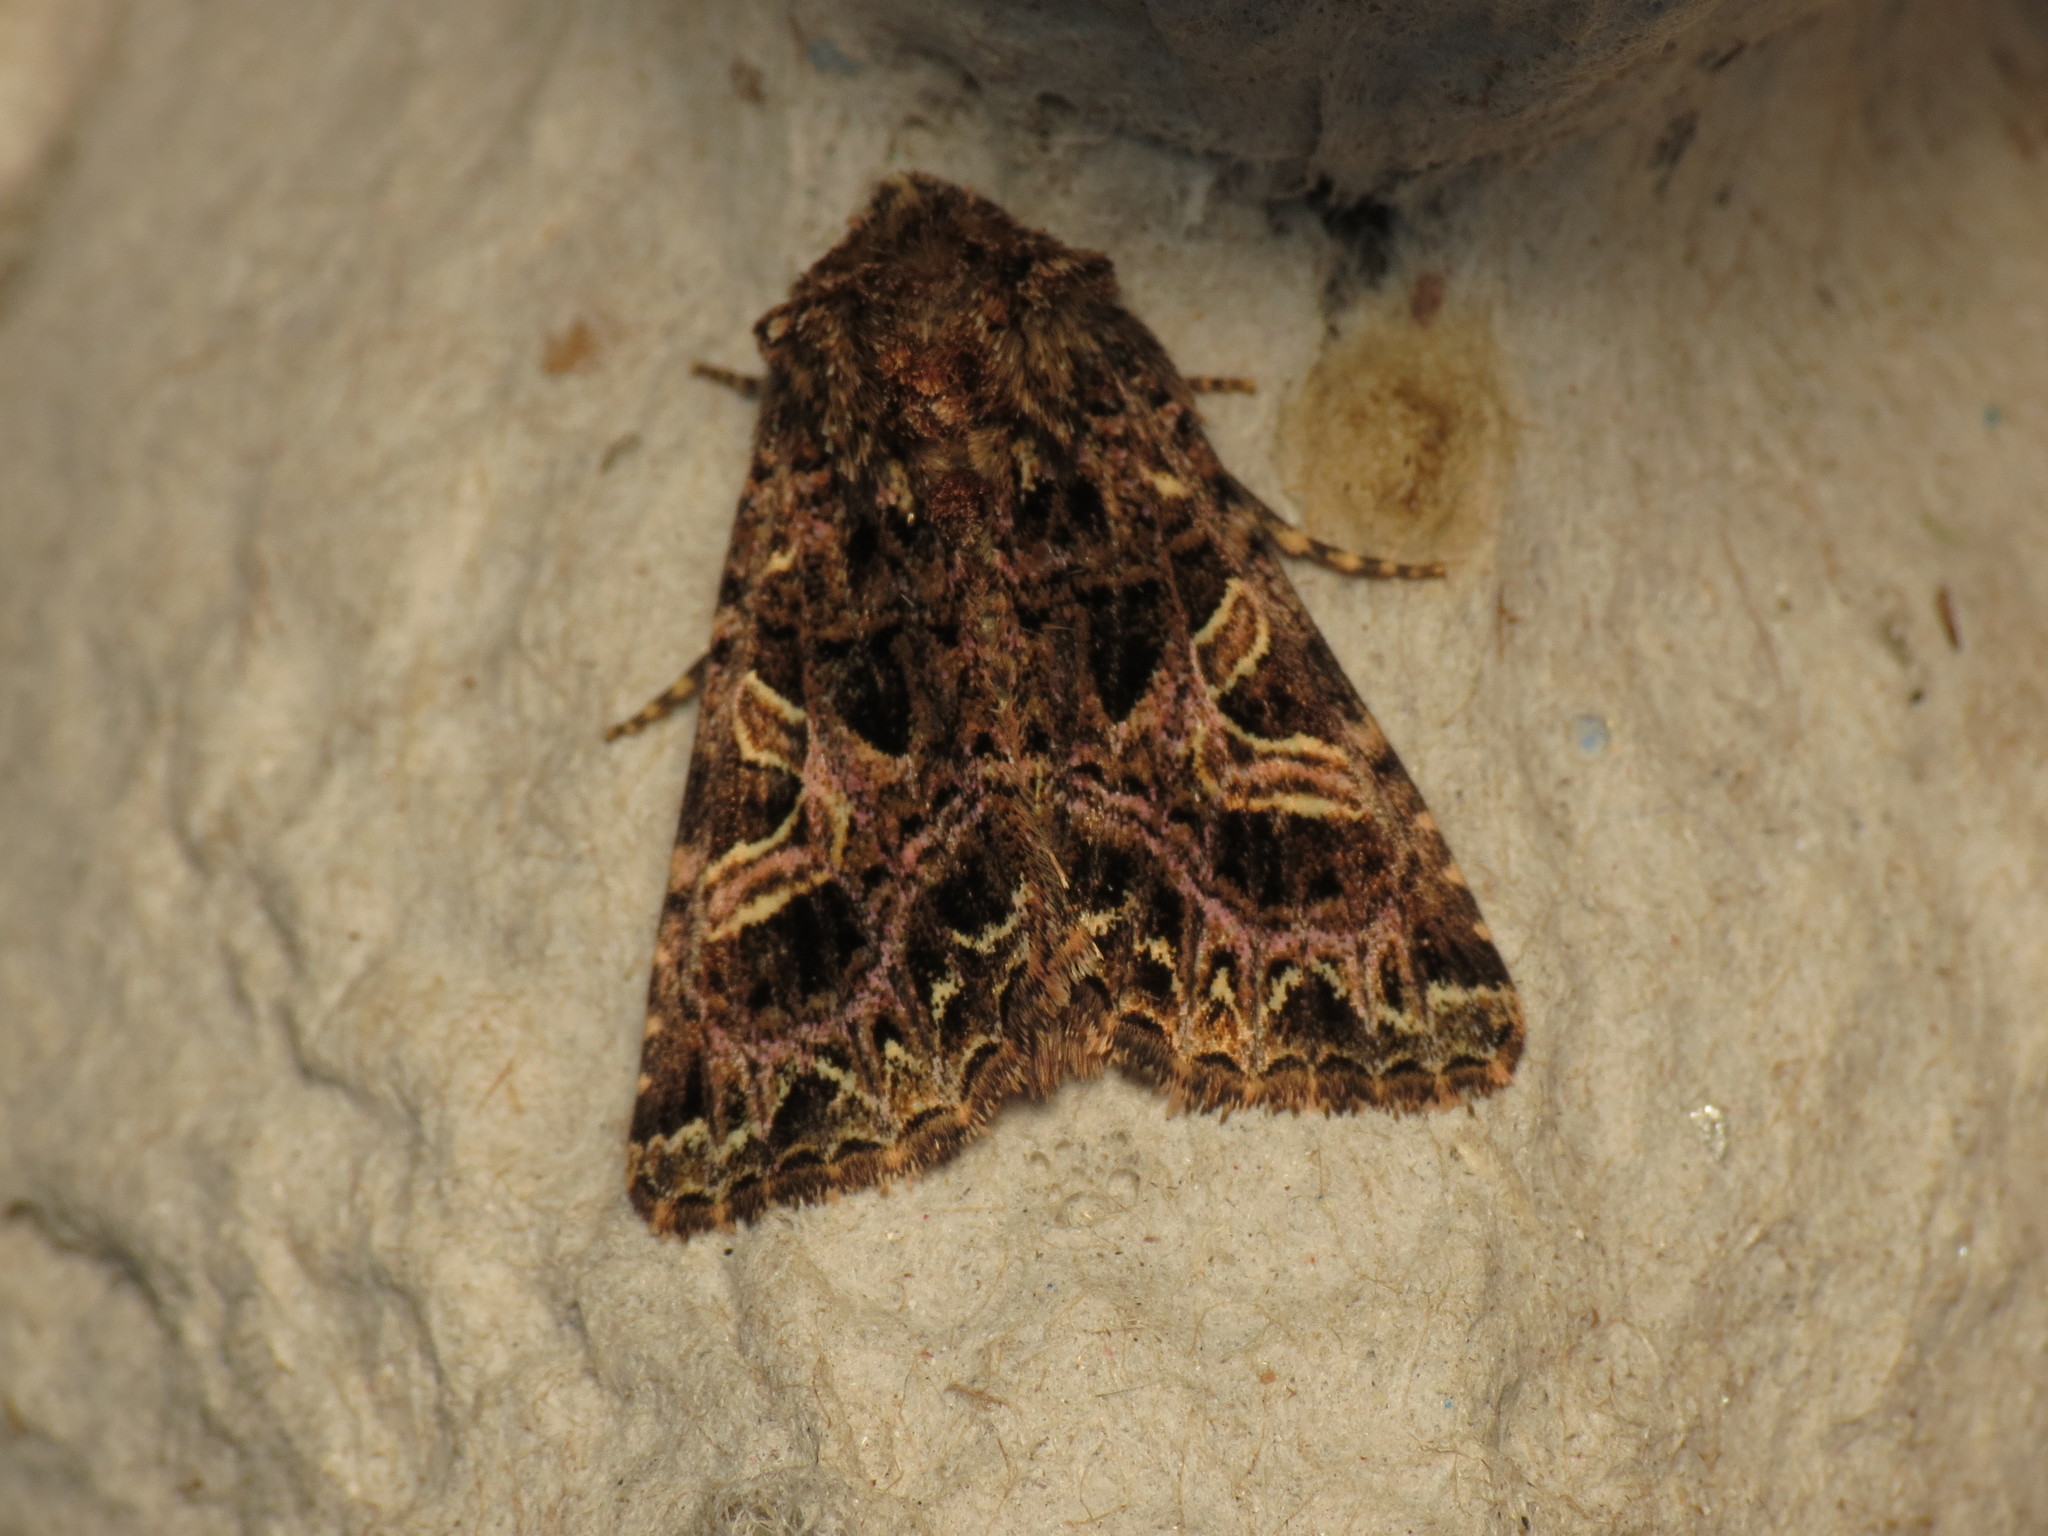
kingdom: Animalia
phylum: Arthropoda
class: Insecta
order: Lepidoptera
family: Noctuidae
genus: Sideridis
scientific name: Sideridis rivularis
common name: Campion
